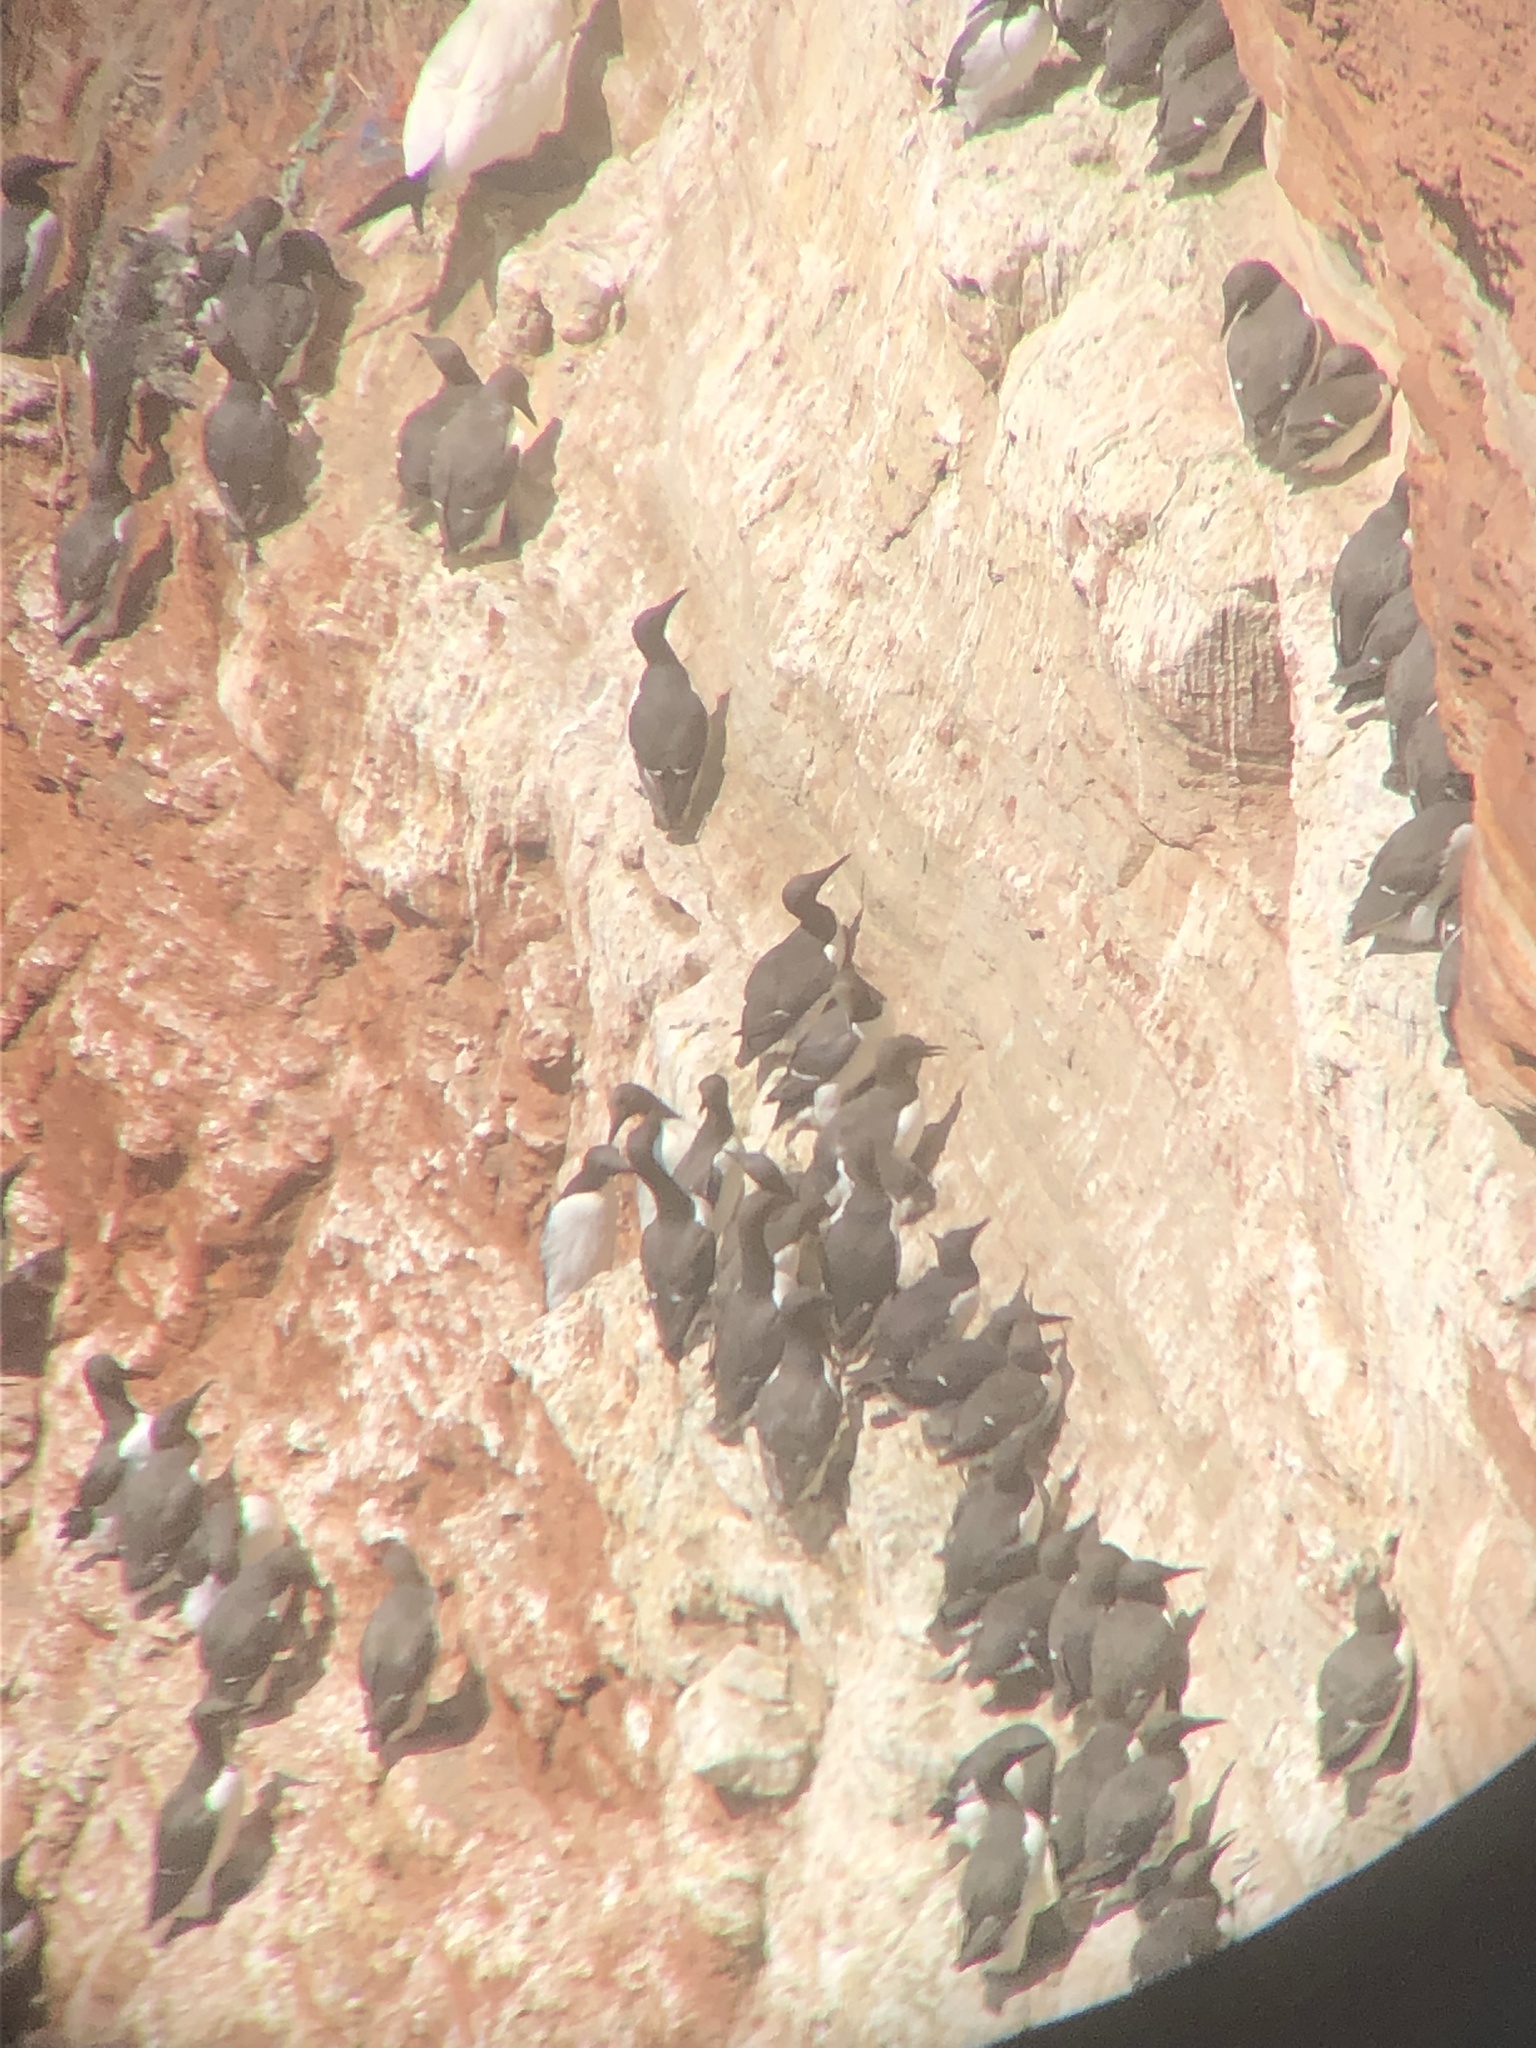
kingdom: Animalia
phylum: Chordata
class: Aves
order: Charadriiformes
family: Alcidae
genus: Uria
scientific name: Uria aalge
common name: Common murre
